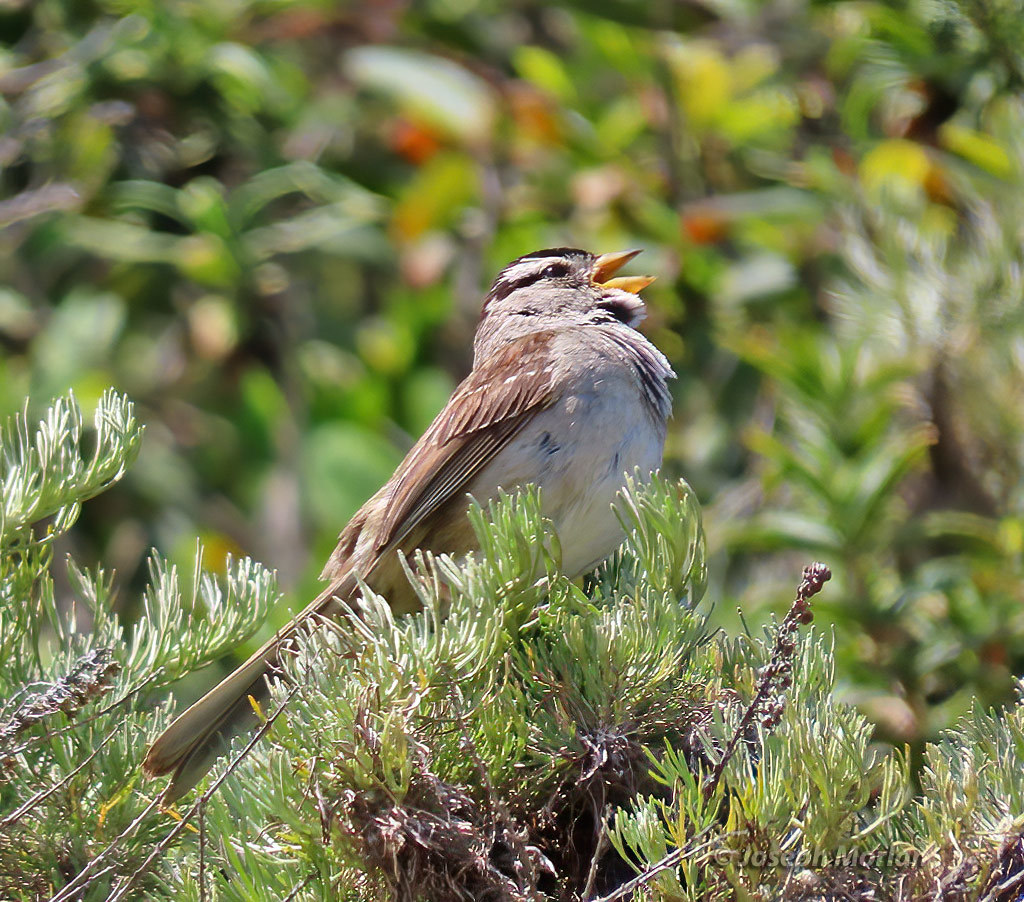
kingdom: Animalia
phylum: Chordata
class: Aves
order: Passeriformes
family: Passerellidae
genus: Zonotrichia
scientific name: Zonotrichia leucophrys
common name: White-crowned sparrow
